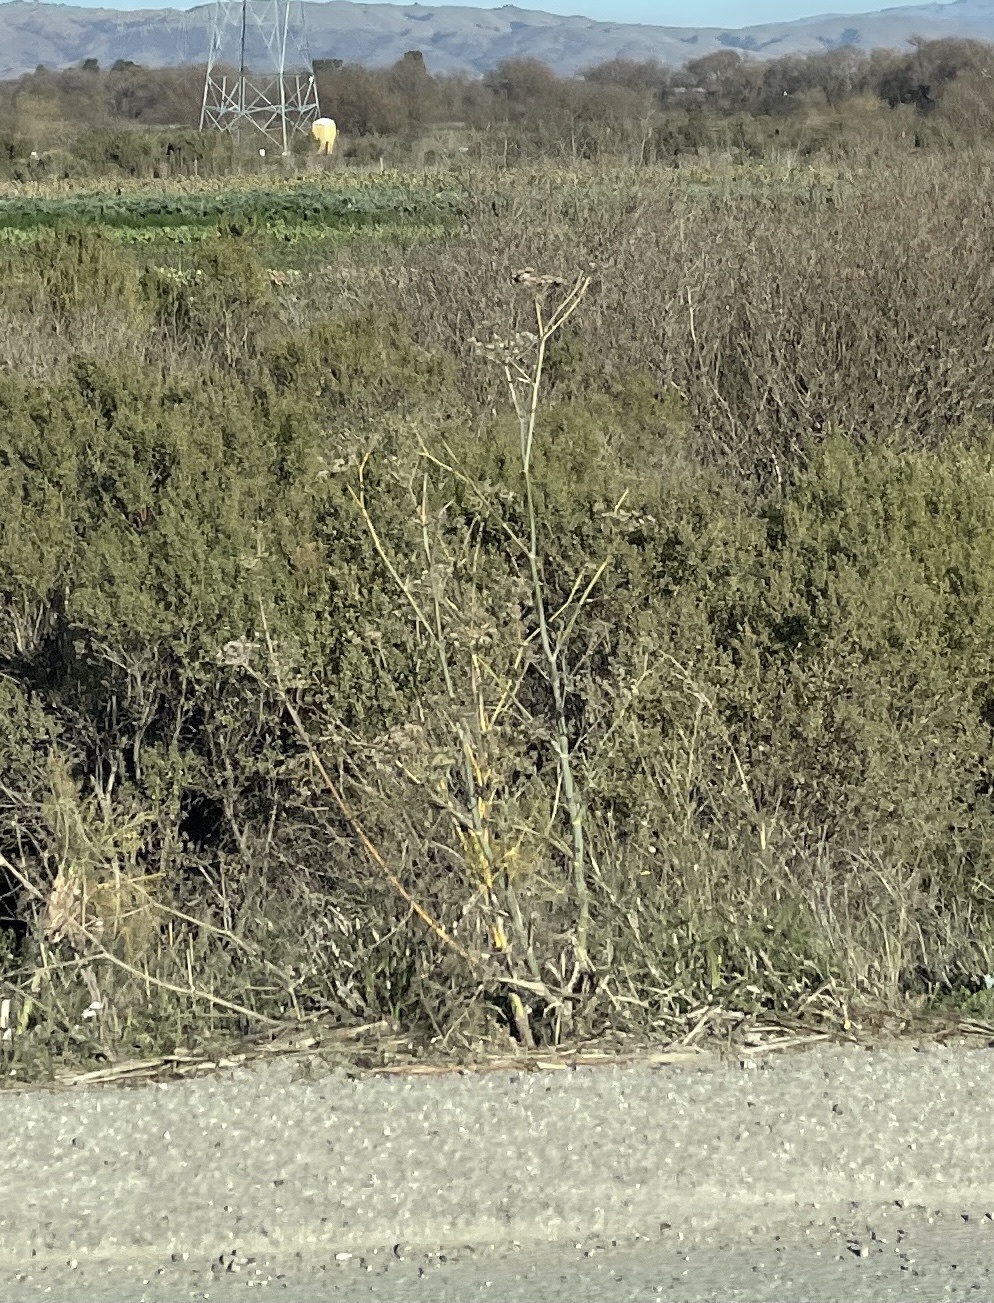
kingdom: Plantae
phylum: Tracheophyta
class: Magnoliopsida
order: Apiales
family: Apiaceae
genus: Foeniculum
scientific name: Foeniculum vulgare
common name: Fennel
